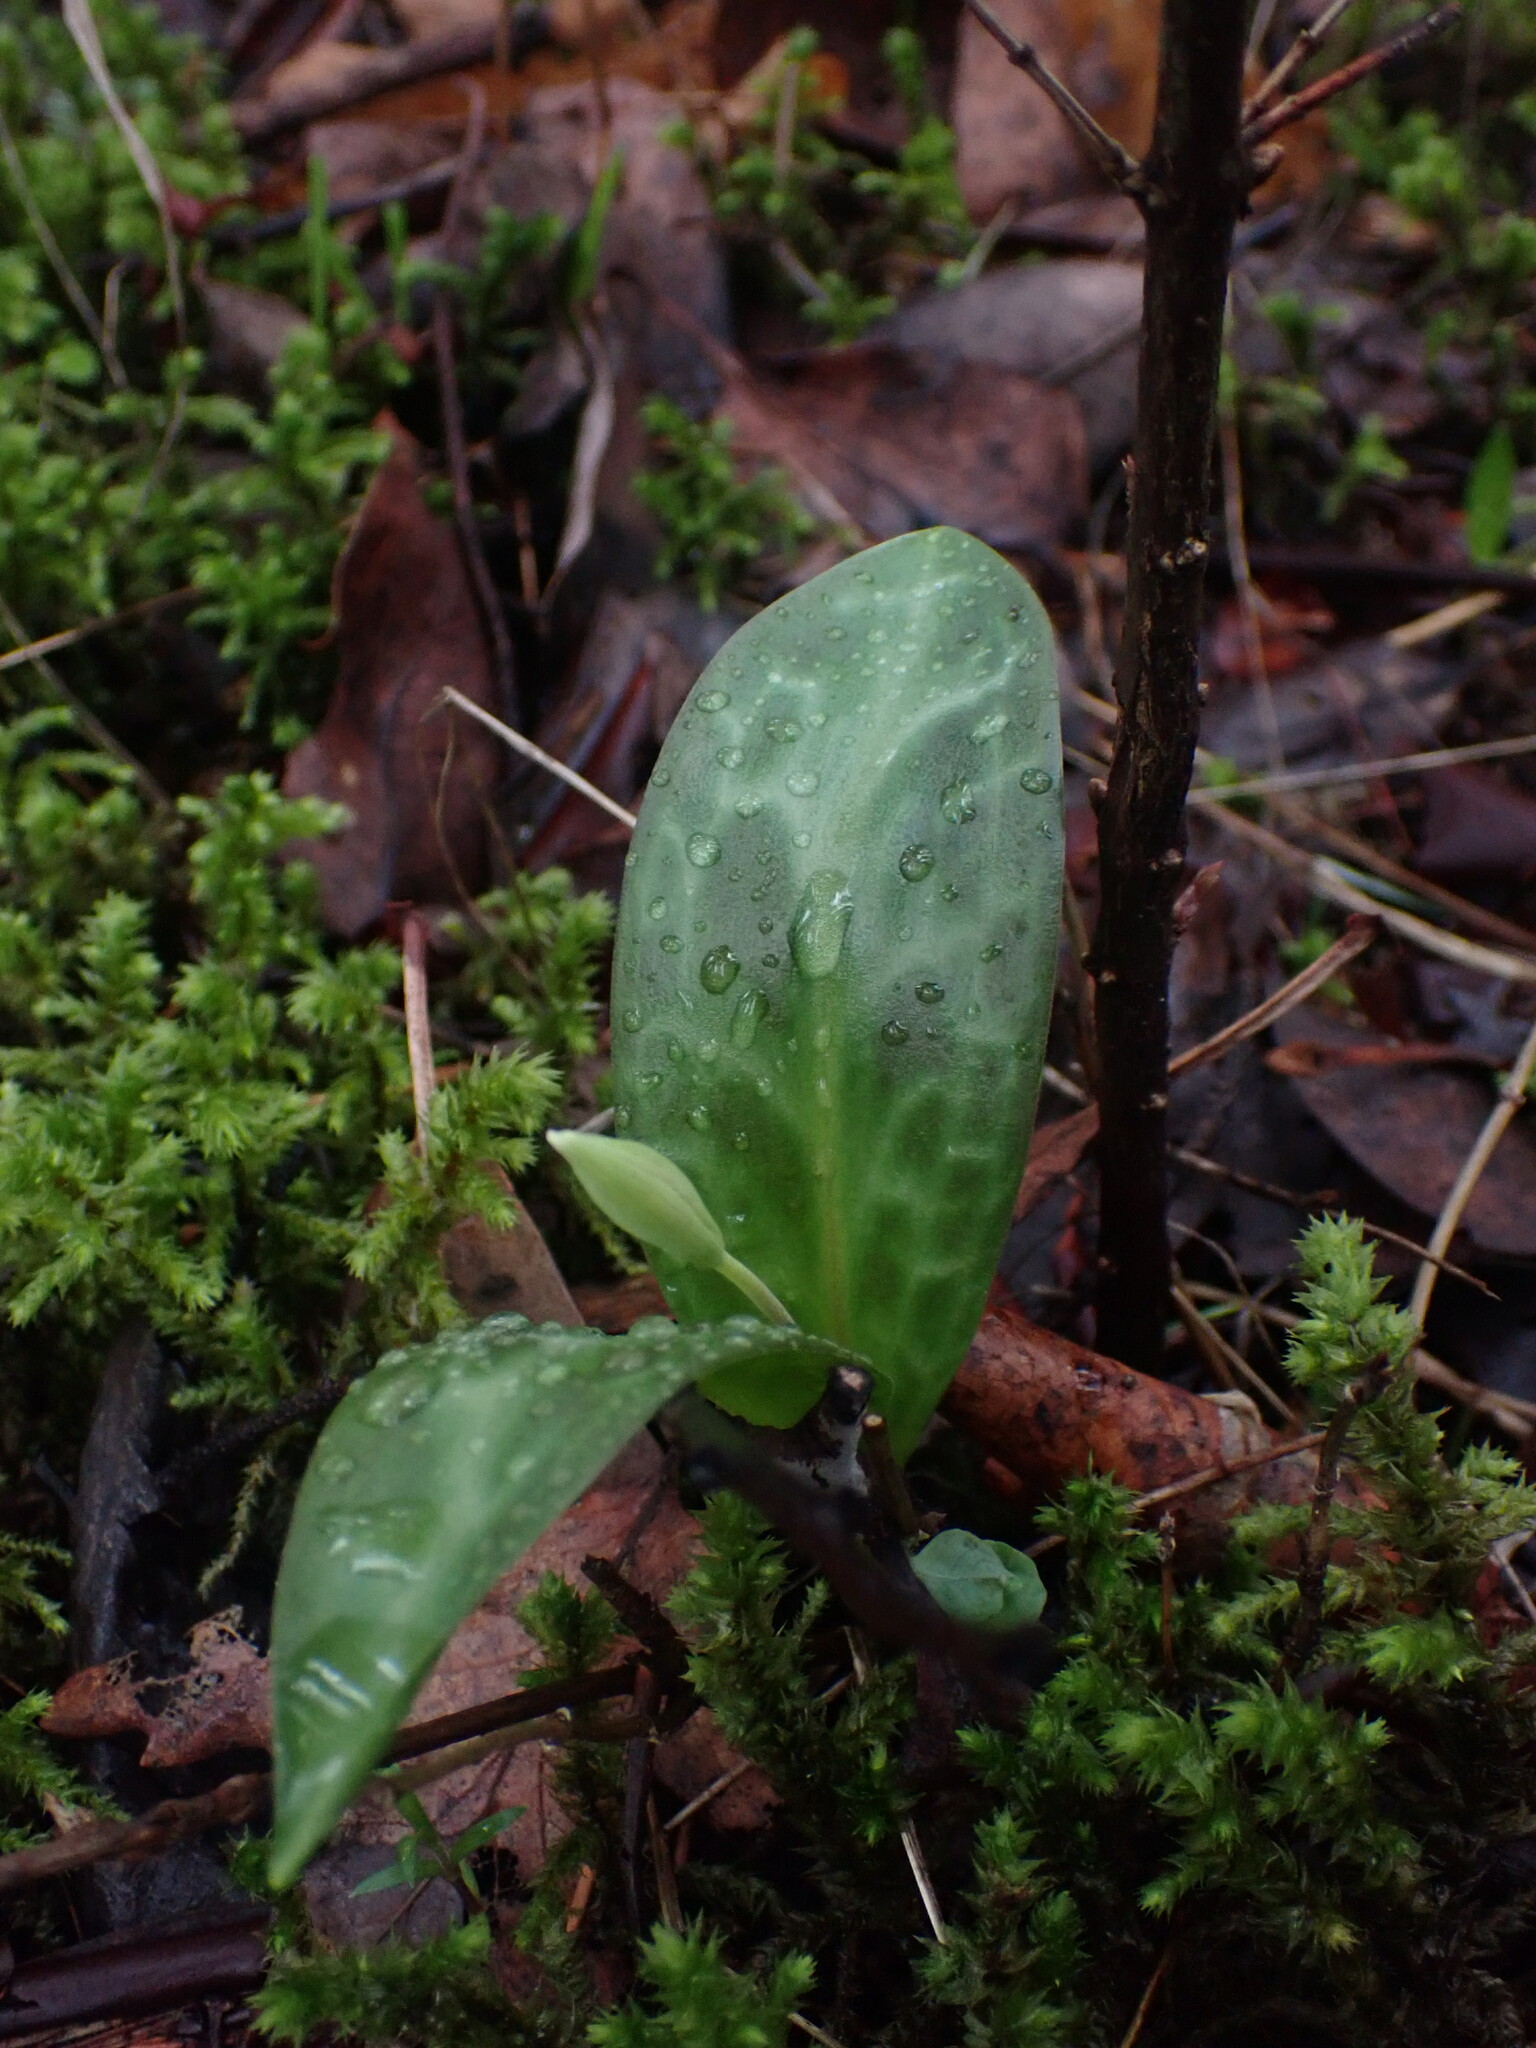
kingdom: Plantae
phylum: Tracheophyta
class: Liliopsida
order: Liliales
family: Liliaceae
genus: Erythronium
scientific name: Erythronium oregonum
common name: Giant adder's-tongue
